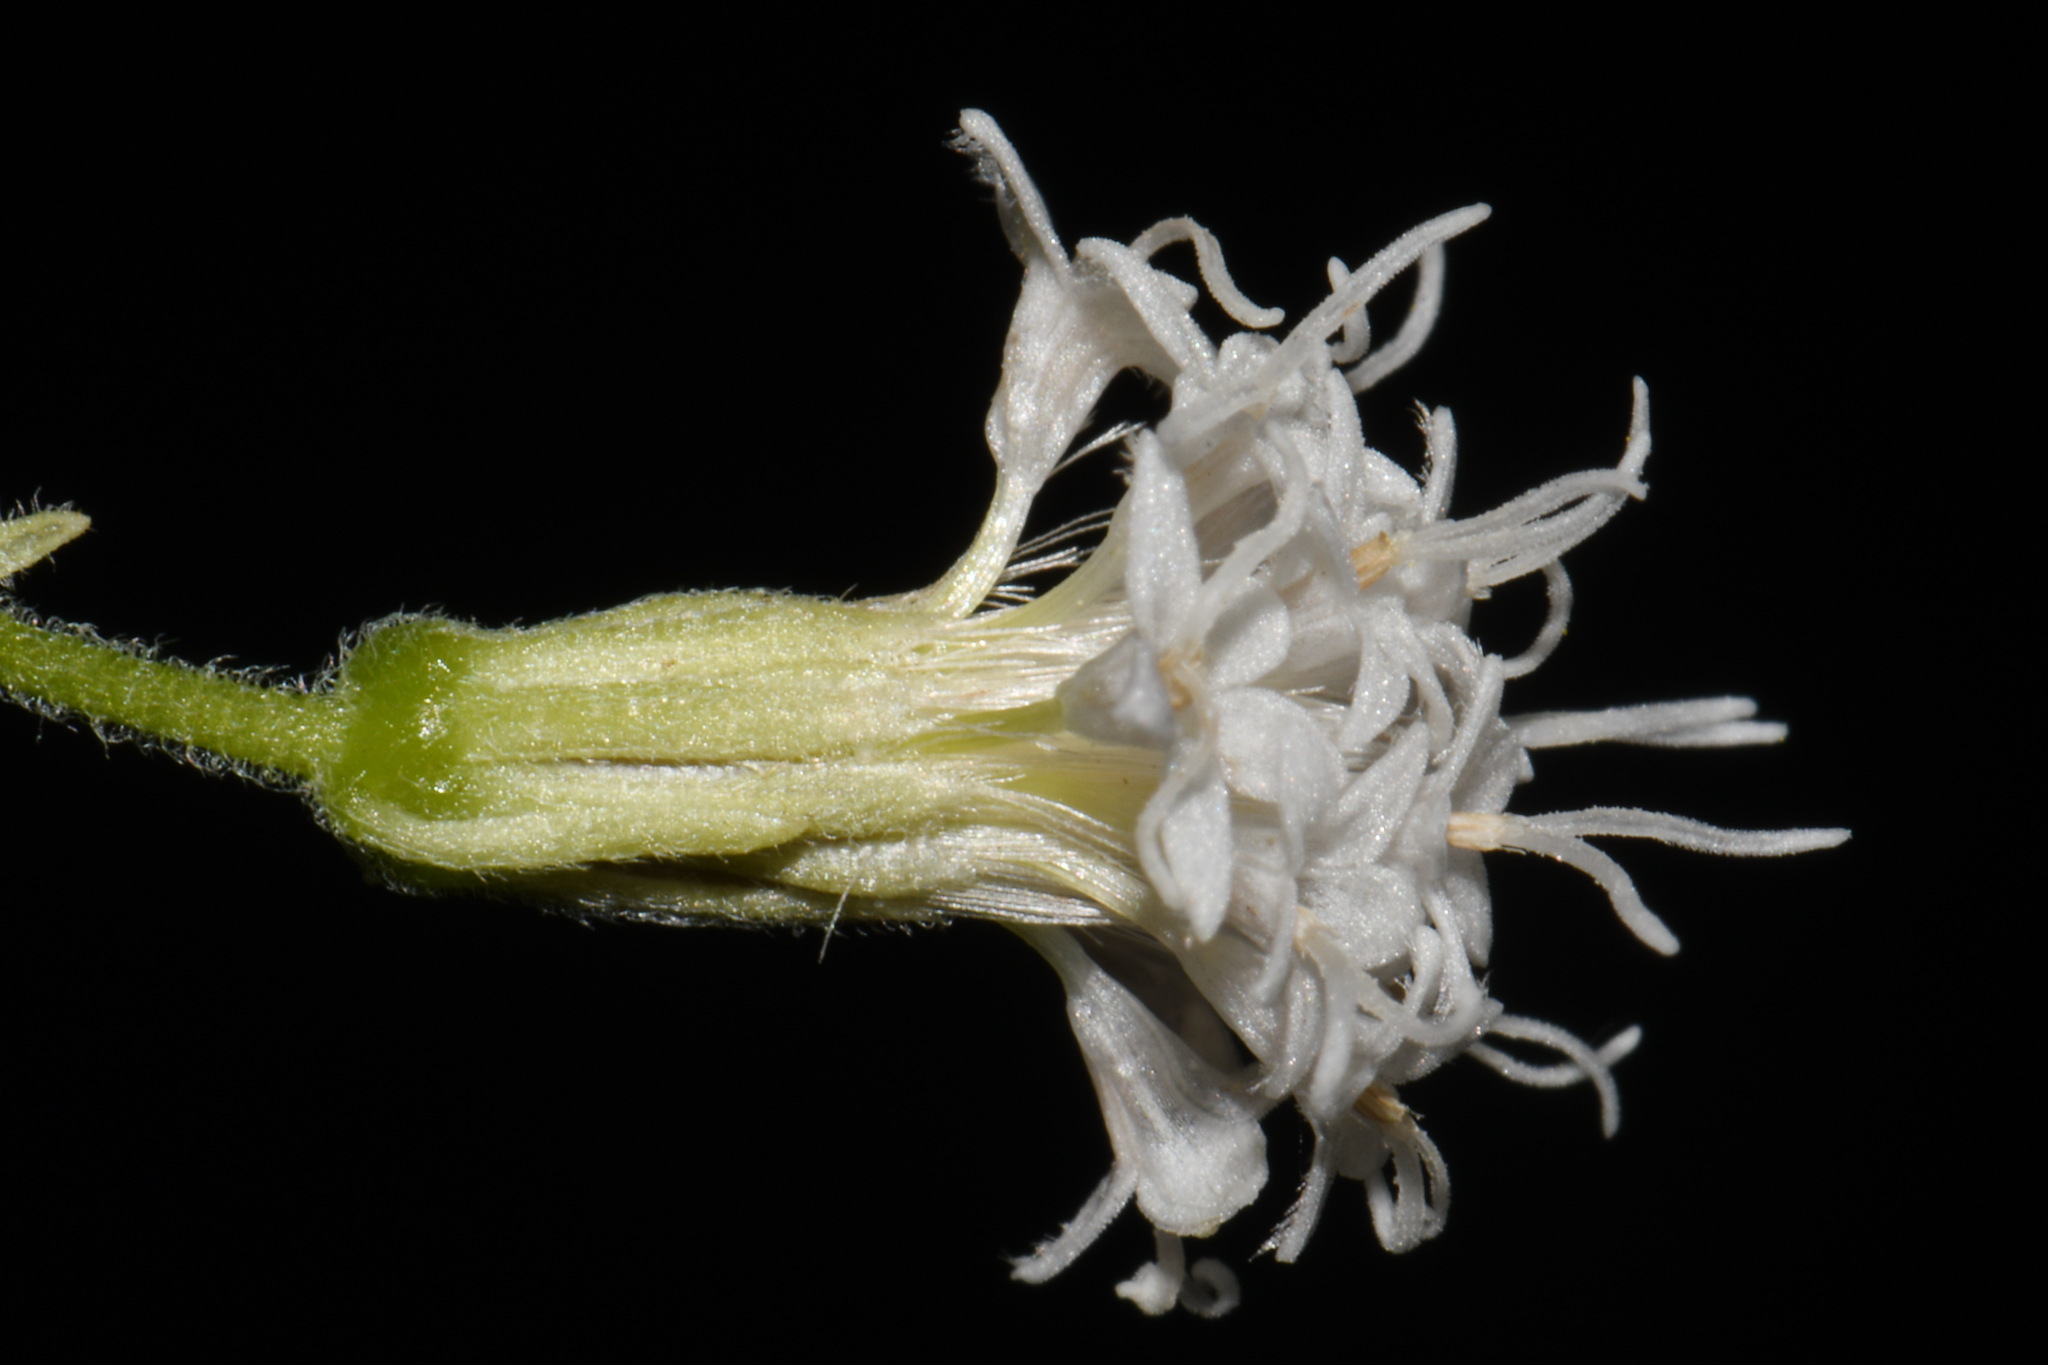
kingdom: Plantae
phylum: Tracheophyta
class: Magnoliopsida
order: Asterales
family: Asteraceae
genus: Ageratina
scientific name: Ageratina aromatica
